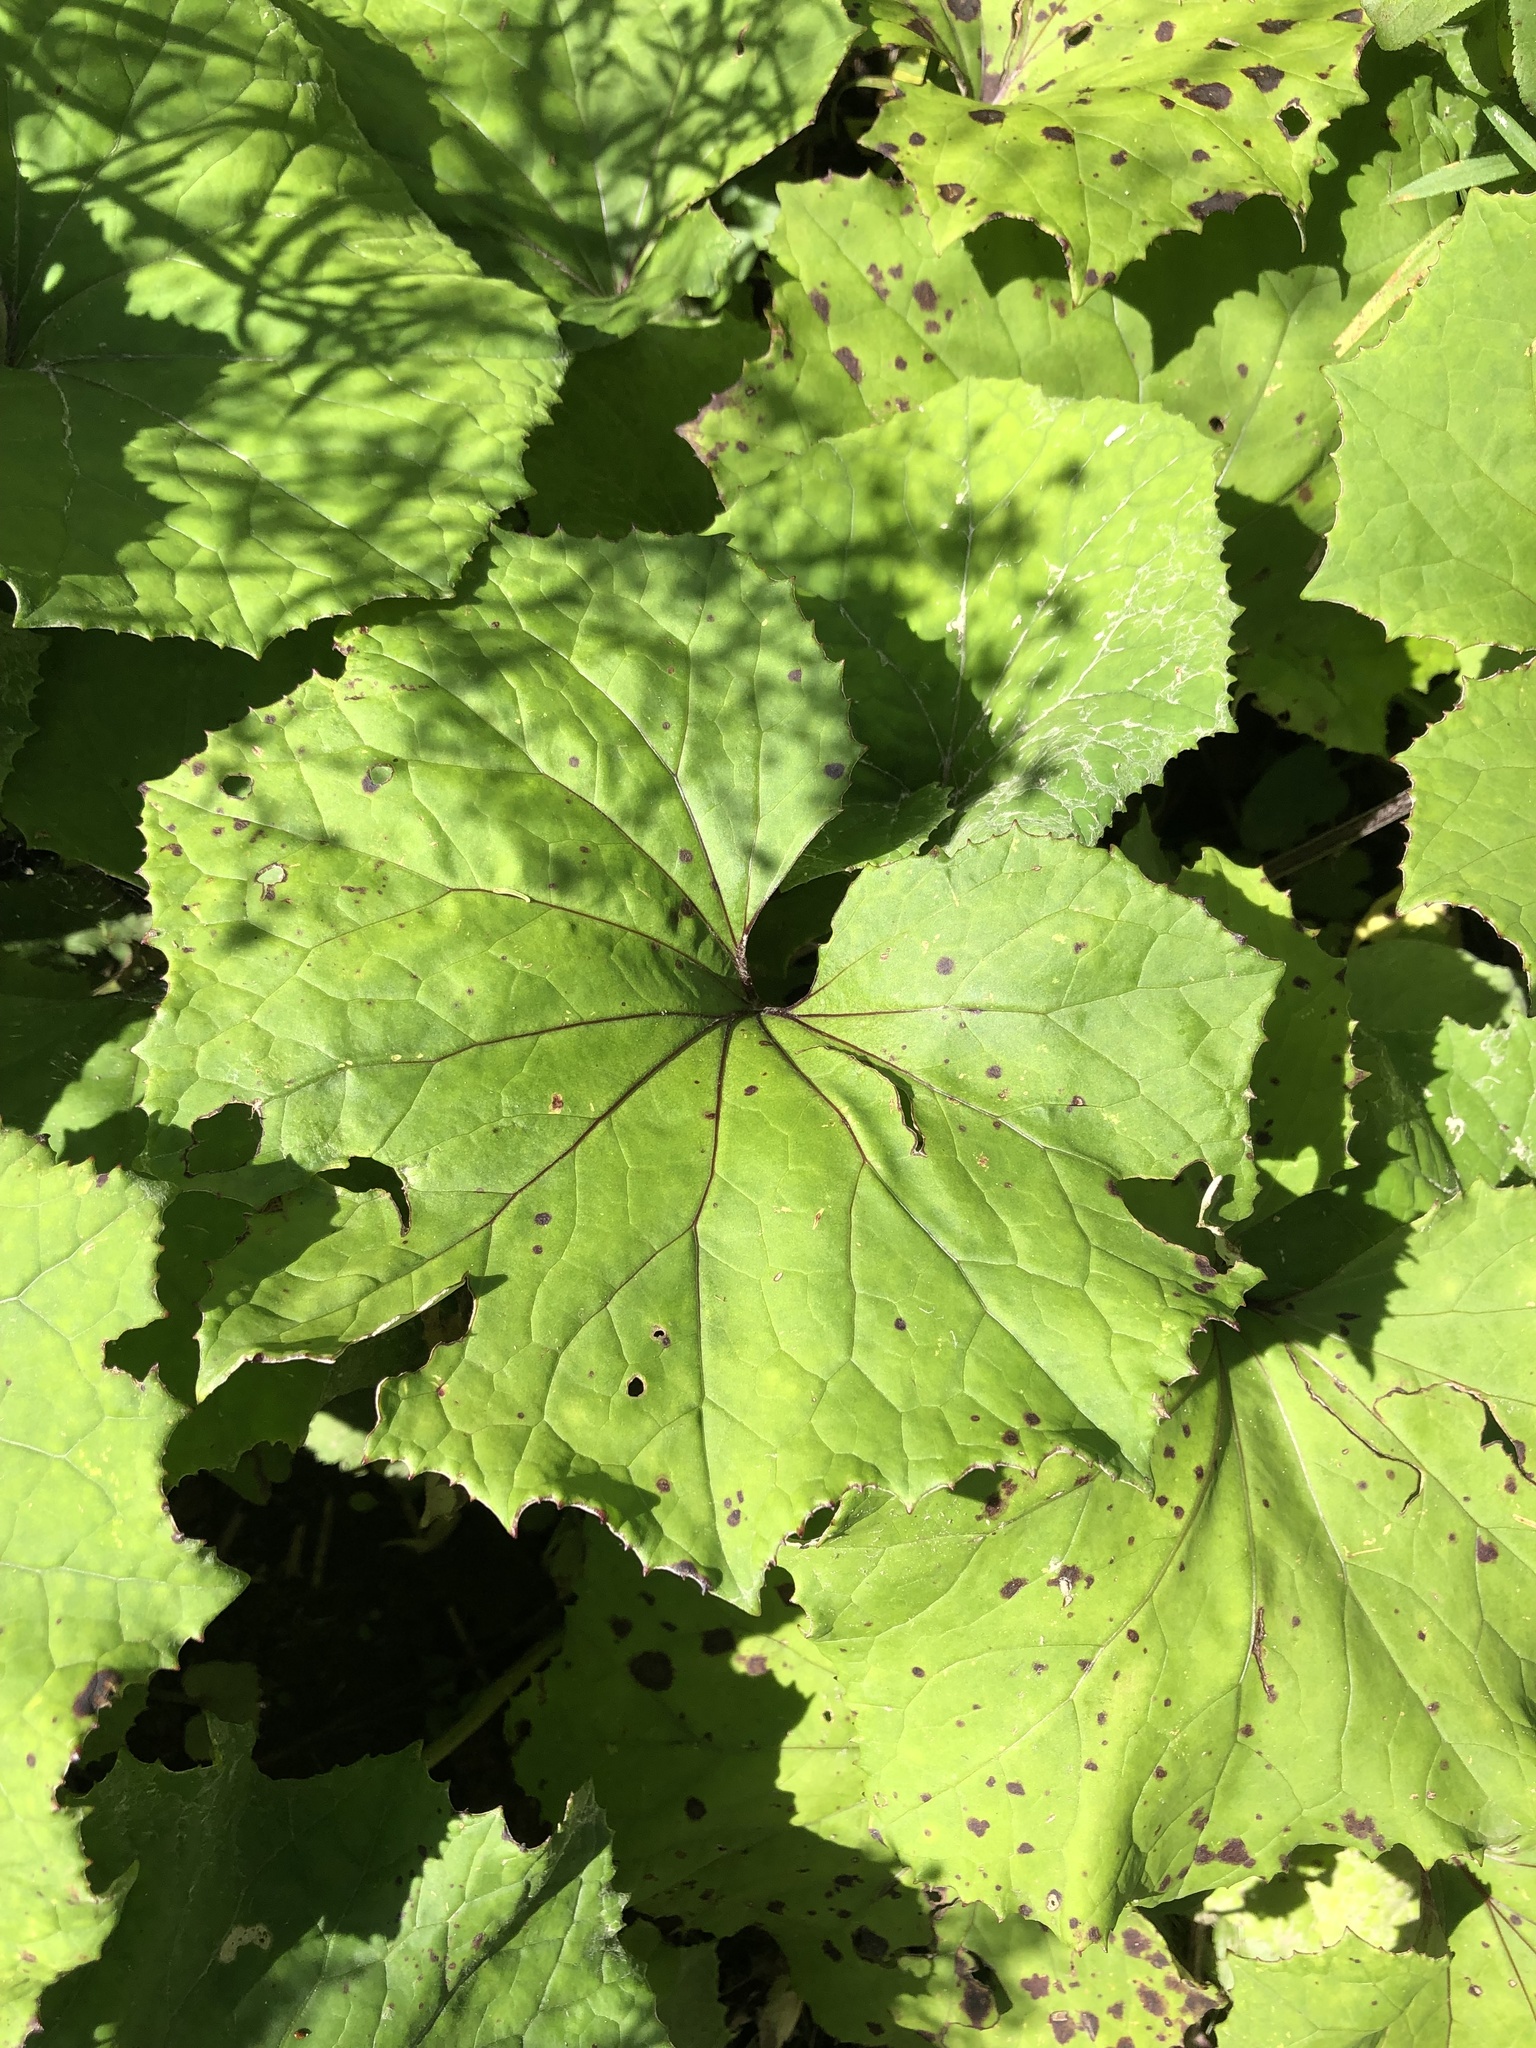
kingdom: Plantae
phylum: Tracheophyta
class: Magnoliopsida
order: Asterales
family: Asteraceae
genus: Tussilago
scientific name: Tussilago farfara
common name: Coltsfoot
